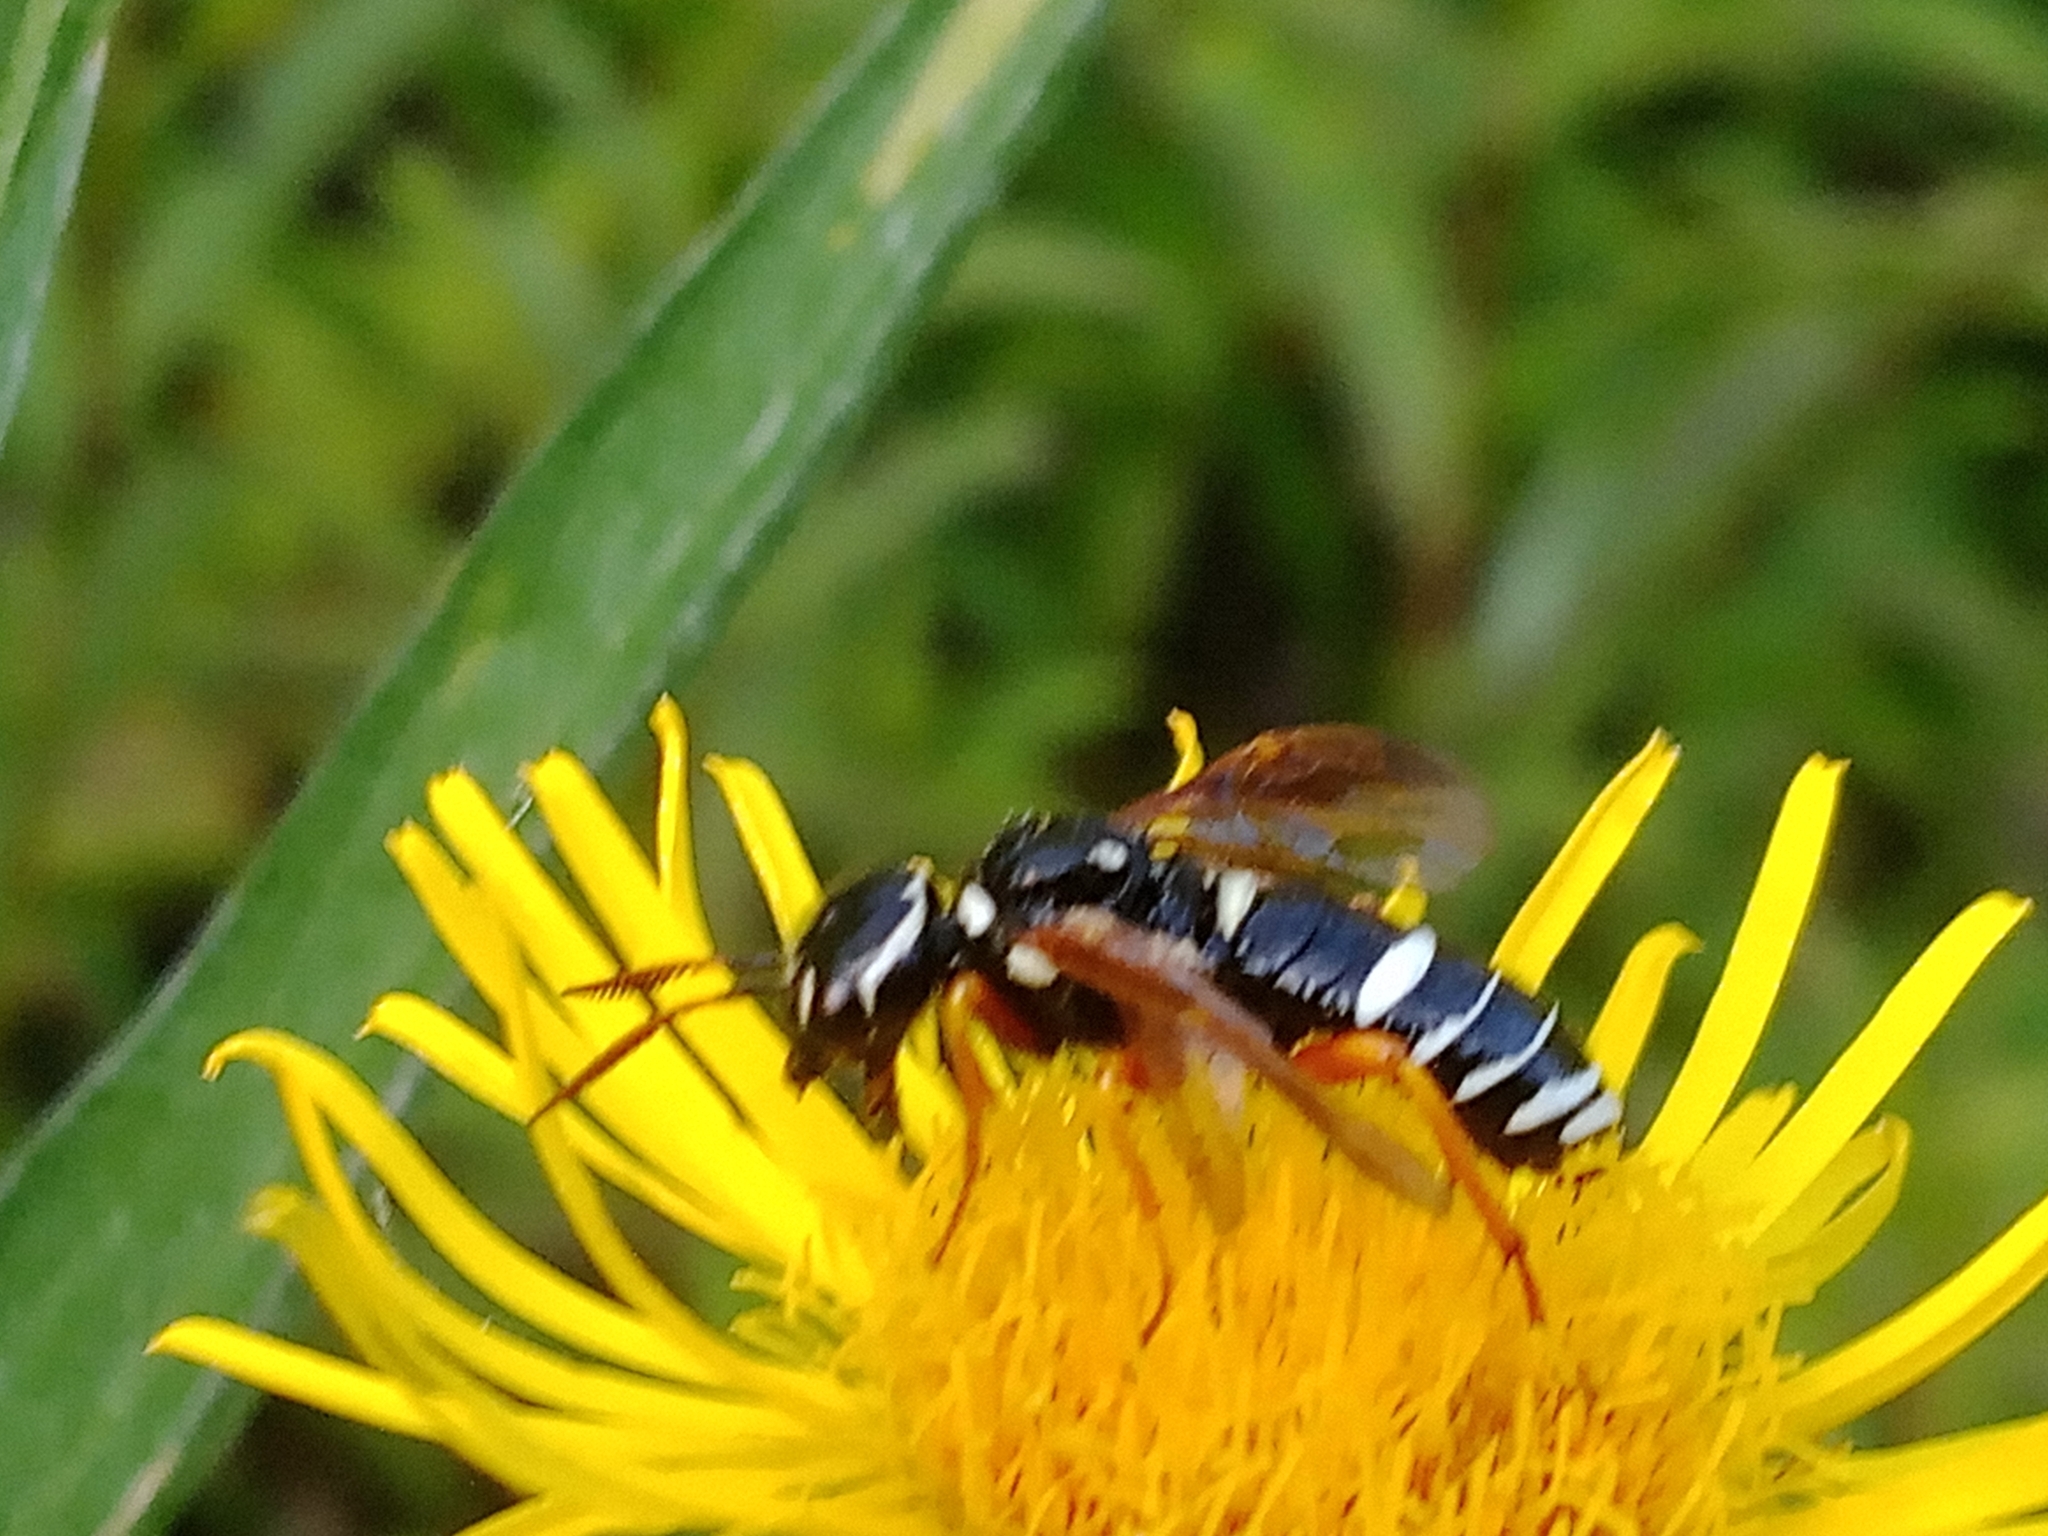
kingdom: Animalia
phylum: Arthropoda
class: Insecta
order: Hymenoptera
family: Megalodontesidae
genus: Megalodontes
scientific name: Megalodontes plagiocephalus
